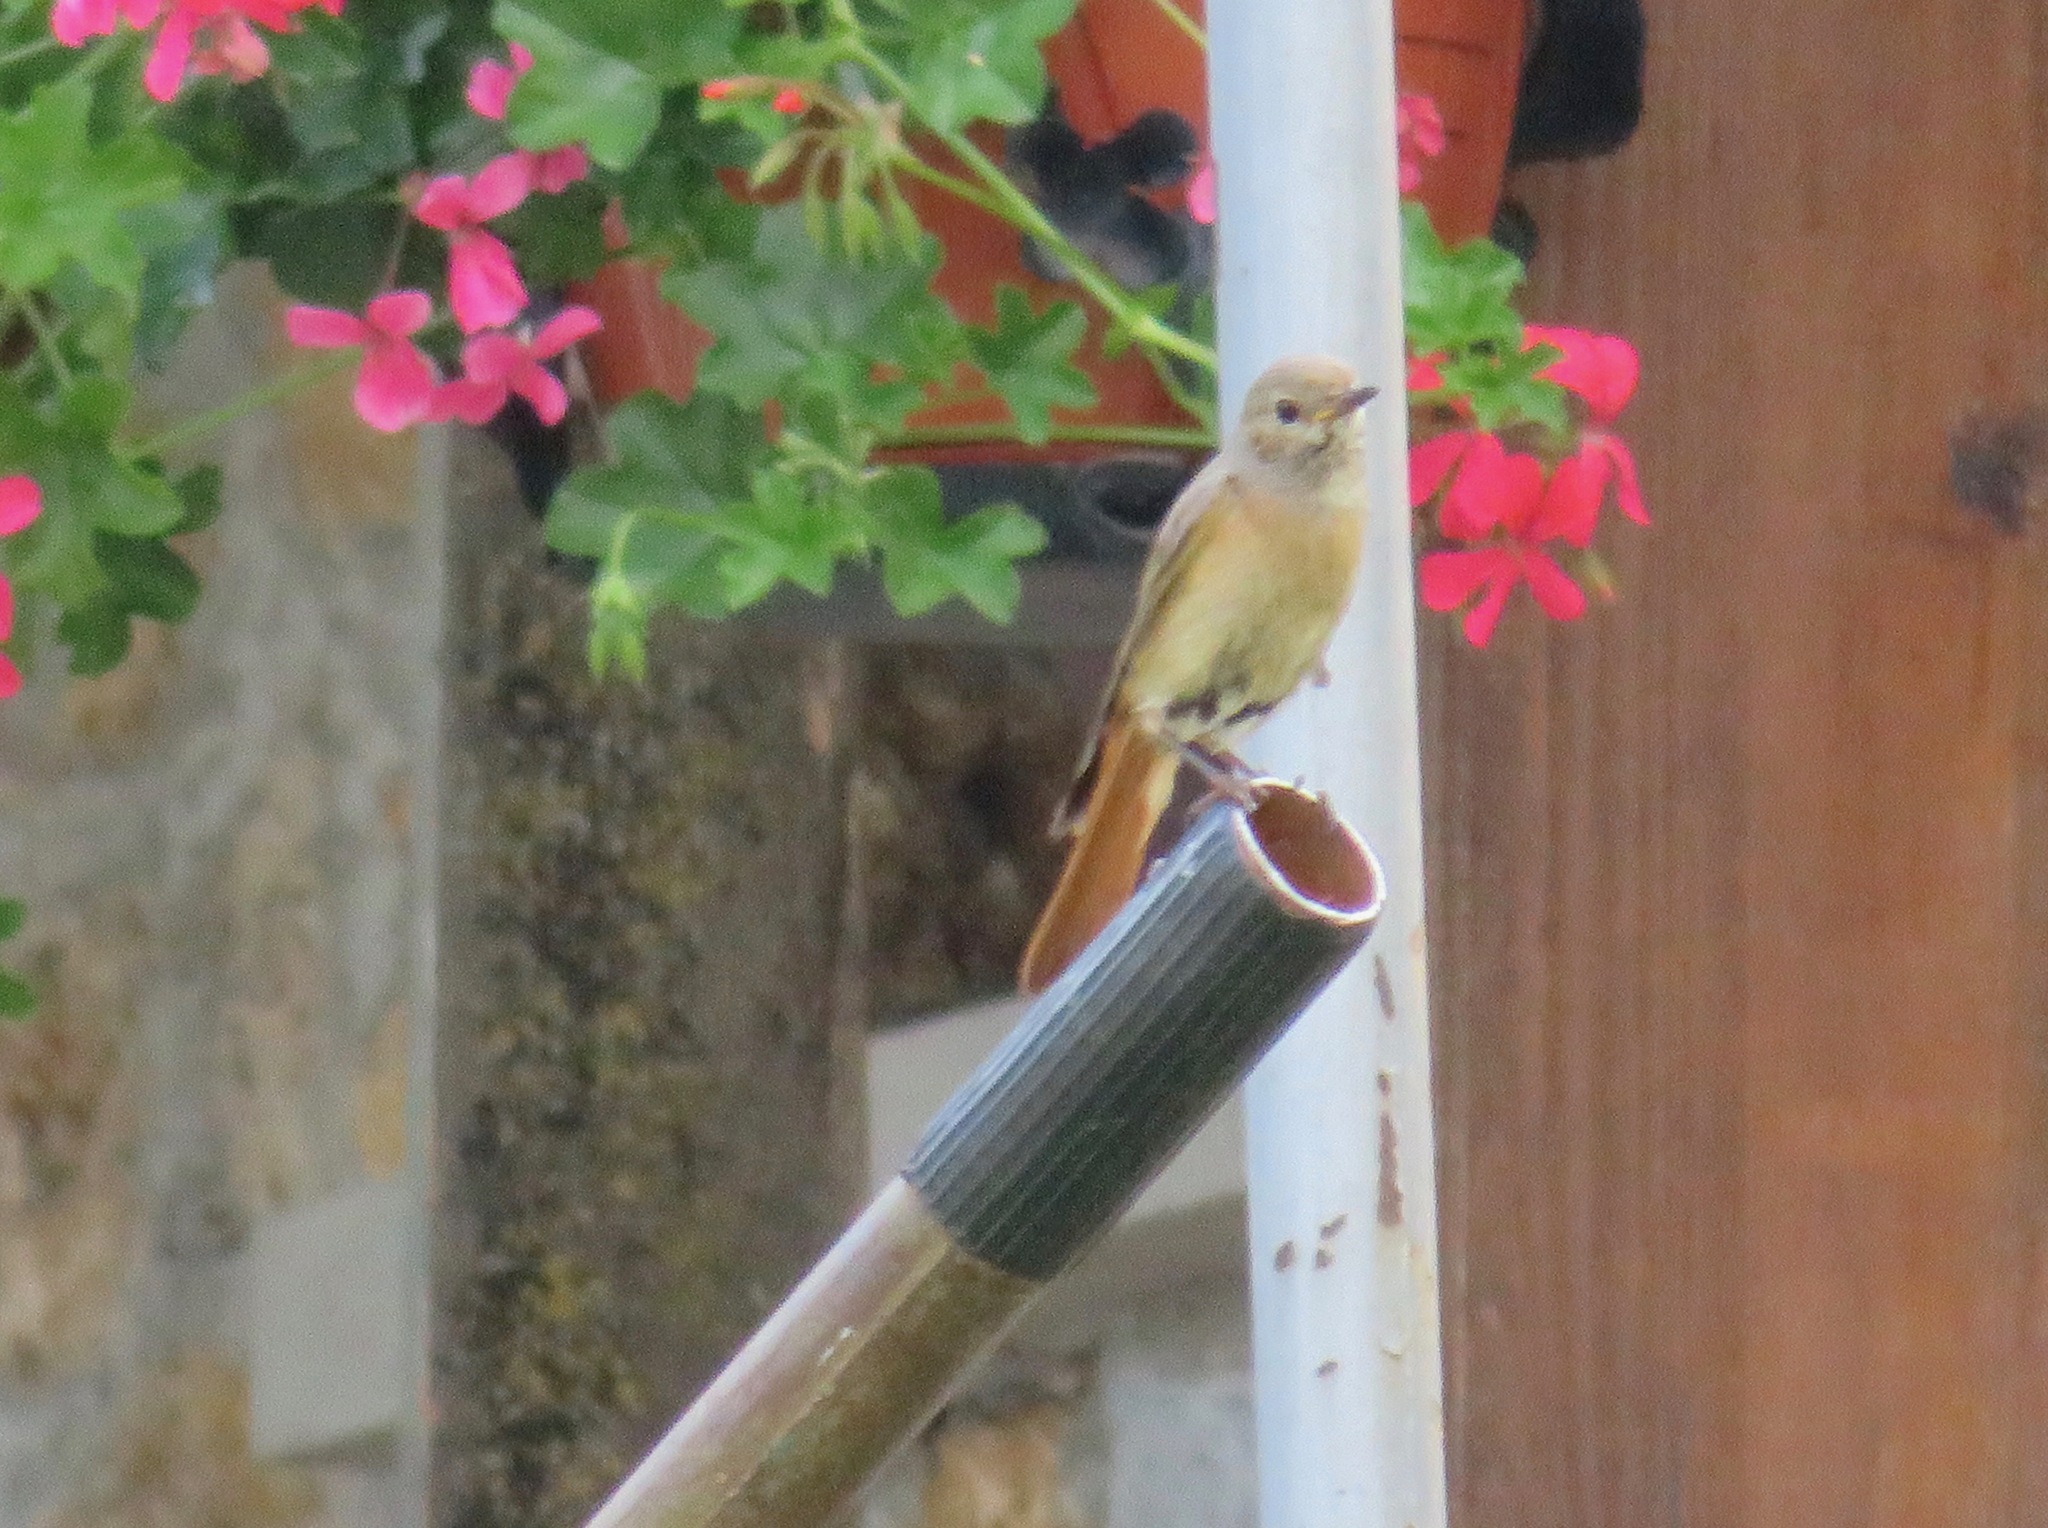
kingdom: Animalia
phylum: Chordata
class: Aves
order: Passeriformes
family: Muscicapidae
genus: Phoenicurus
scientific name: Phoenicurus phoenicurus
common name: Common redstart
